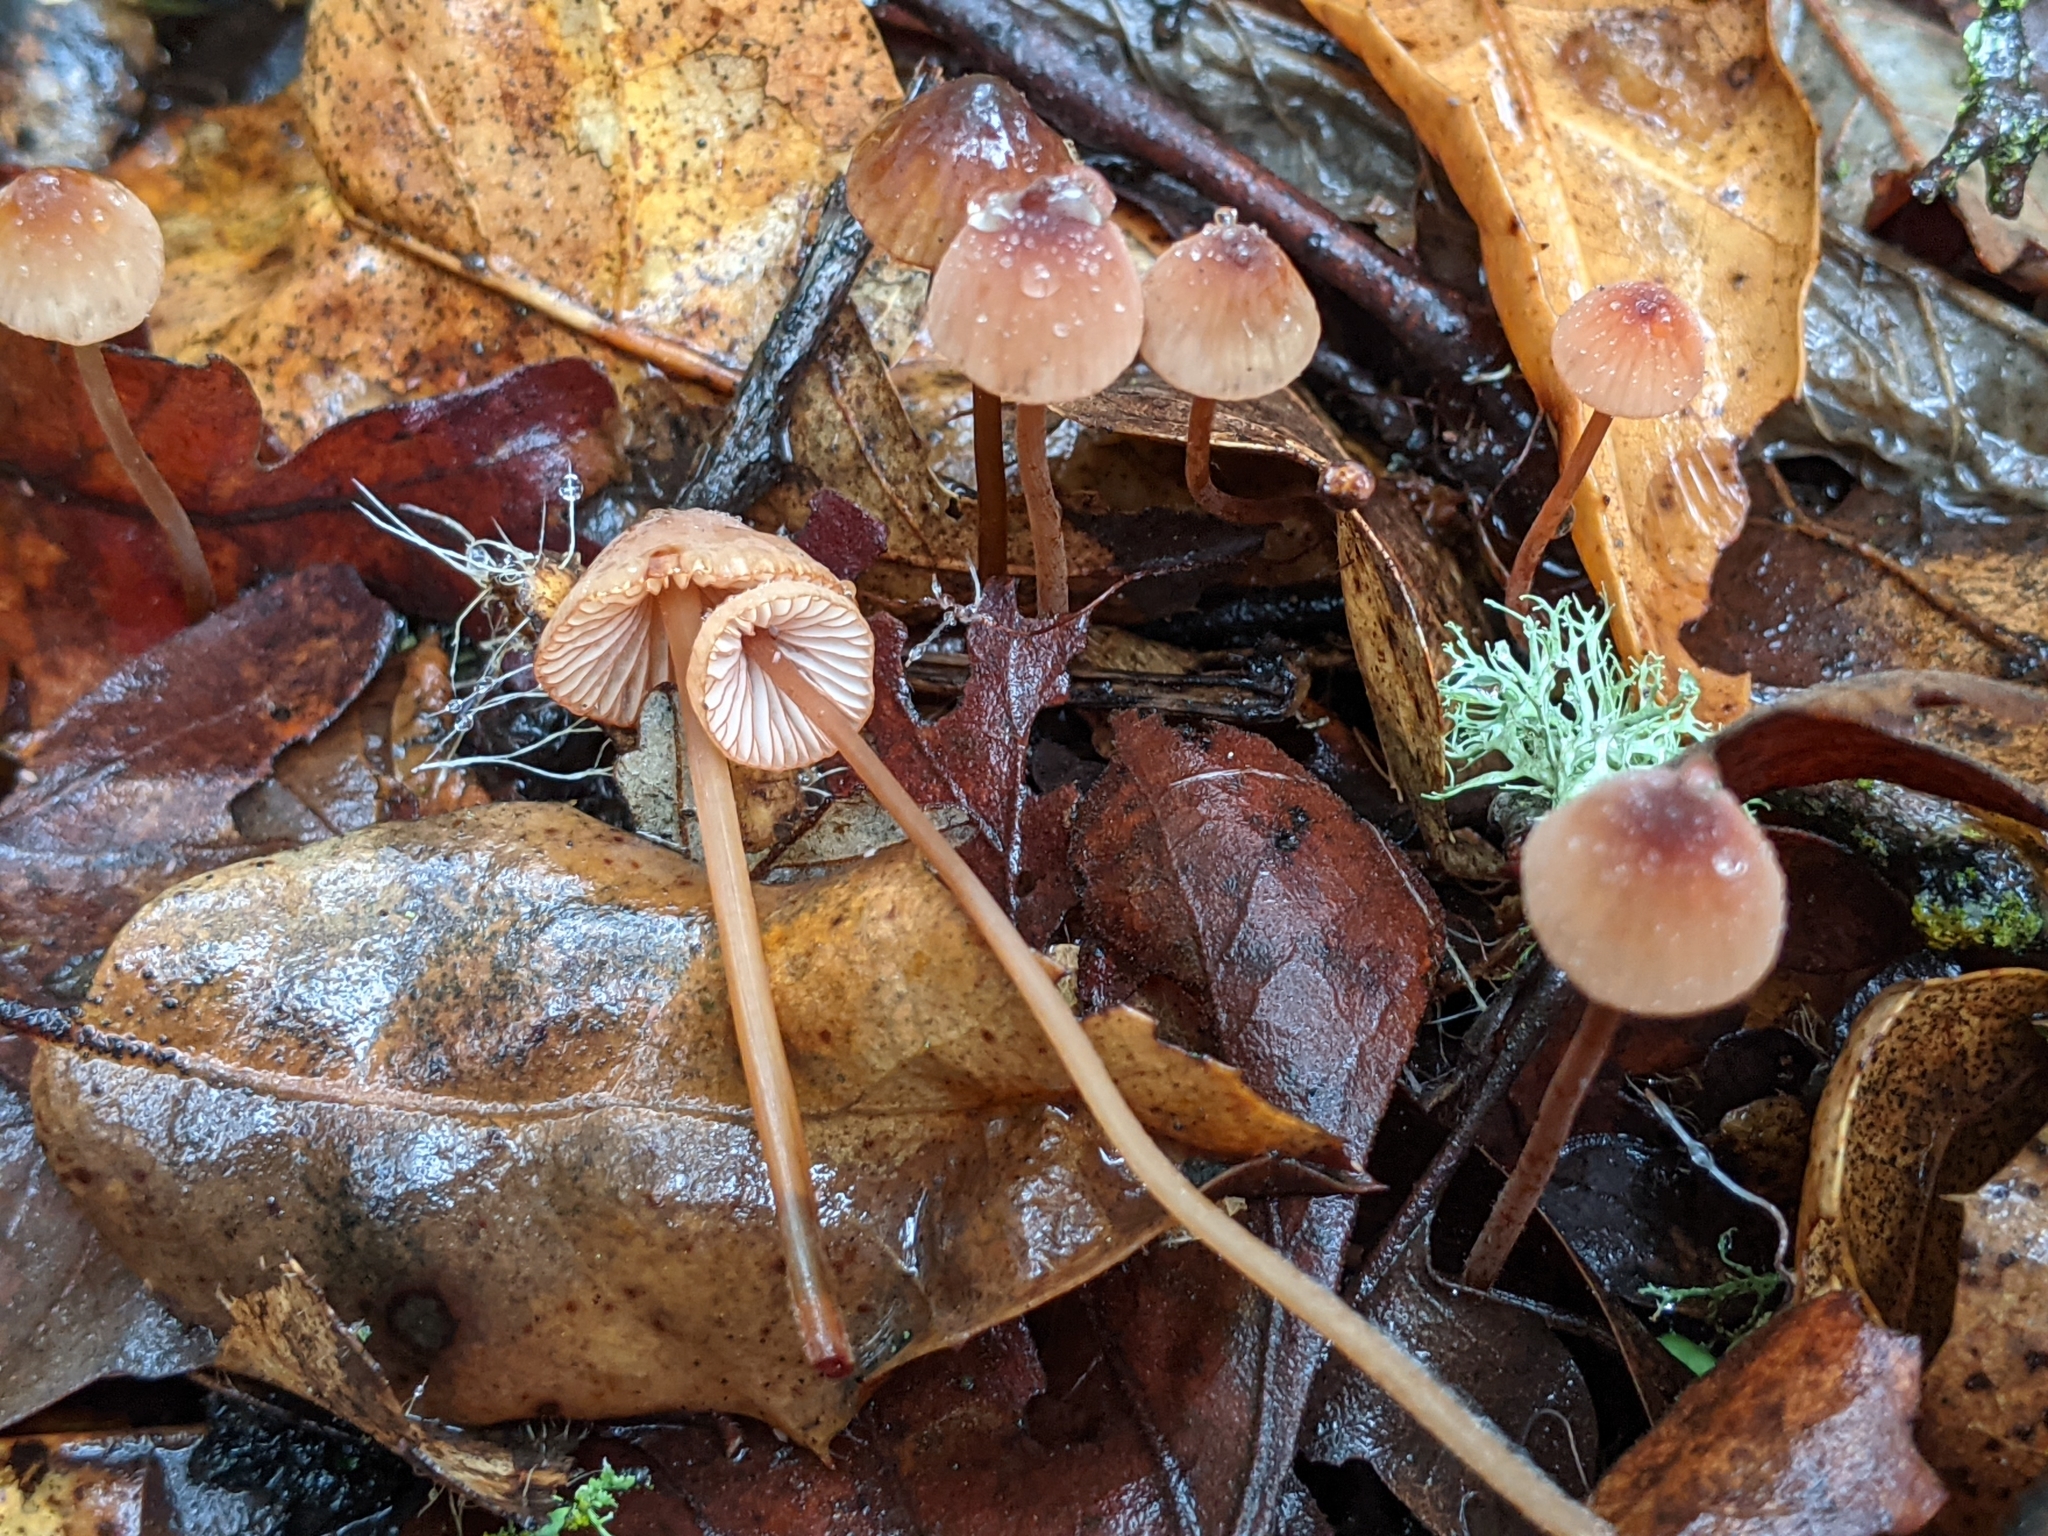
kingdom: Fungi
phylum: Basidiomycota
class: Agaricomycetes
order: Agaricales
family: Mycenaceae
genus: Mycena
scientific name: Mycena
